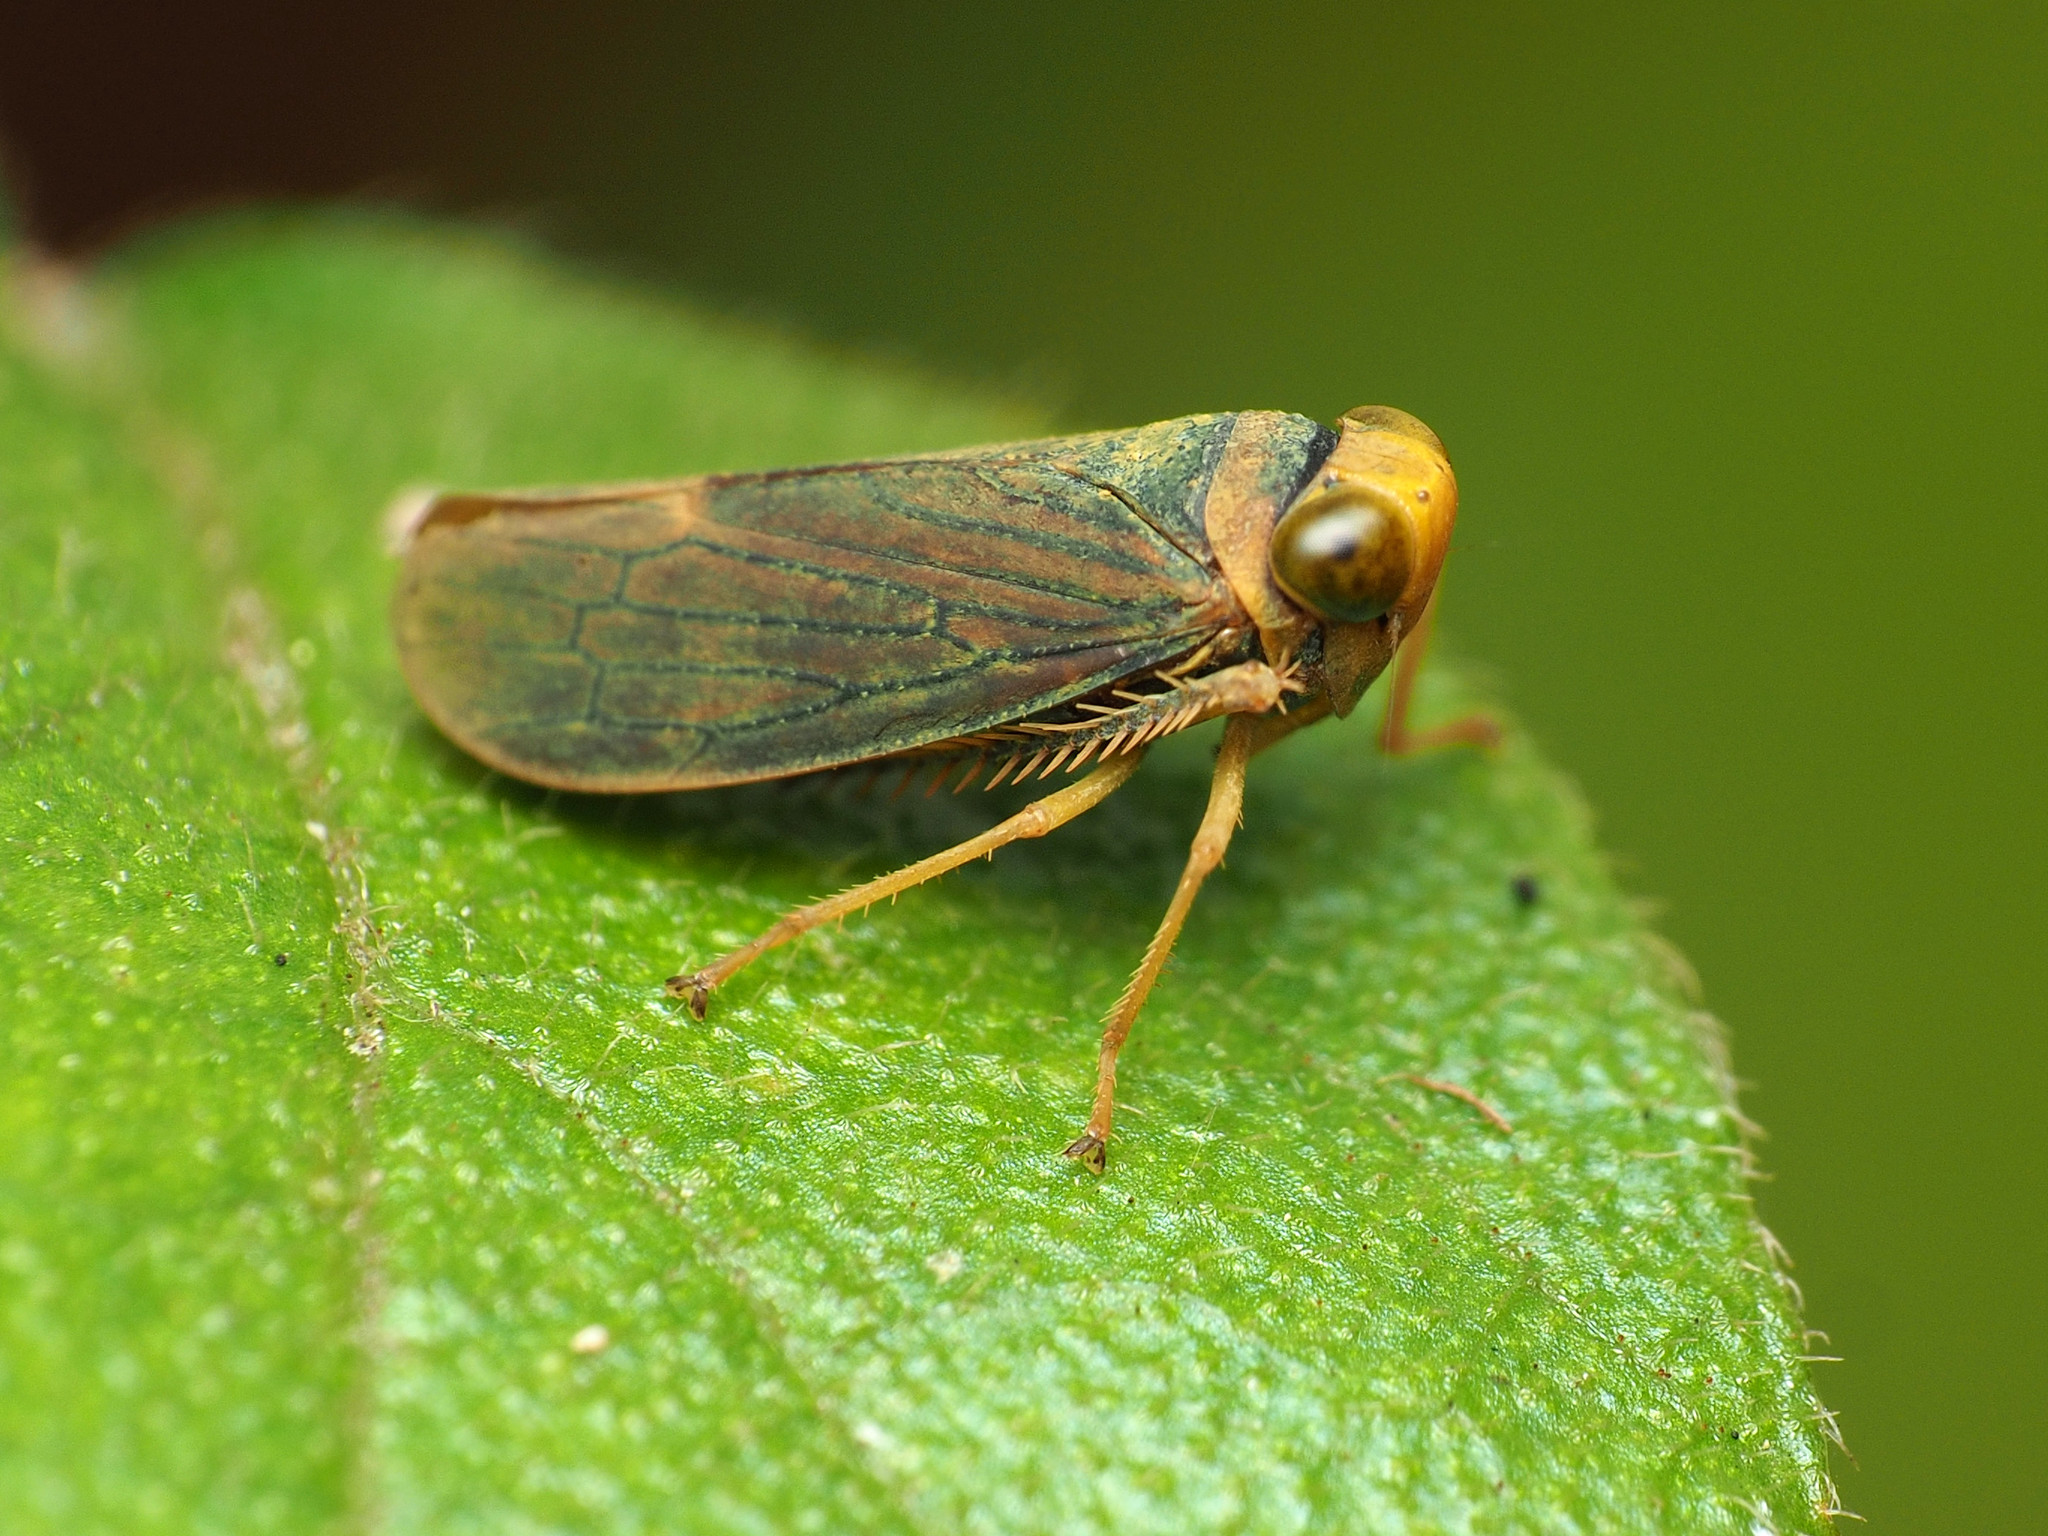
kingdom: Animalia
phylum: Arthropoda
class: Insecta
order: Hemiptera
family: Cicadellidae
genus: Jikradia
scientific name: Jikradia olitoria
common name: Coppery leafhopper
